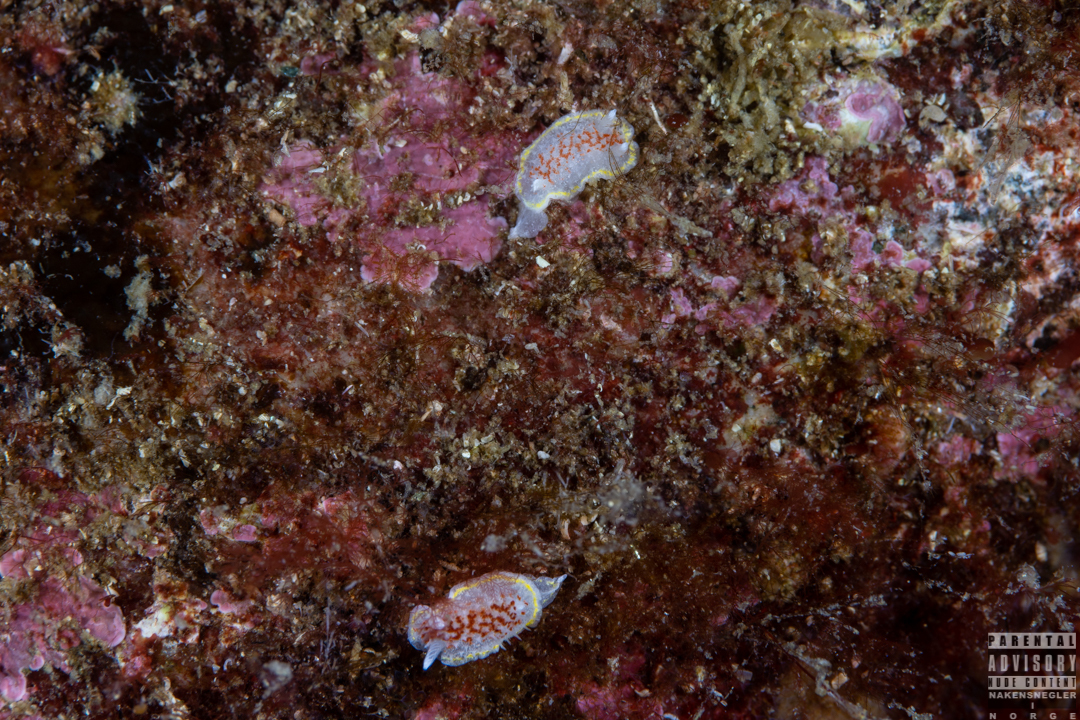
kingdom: Animalia
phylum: Mollusca
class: Gastropoda
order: Nudibranchia
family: Calycidorididae
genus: Diaphorodoris
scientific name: Diaphorodoris luteocincta
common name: Fried egg nudibranch
